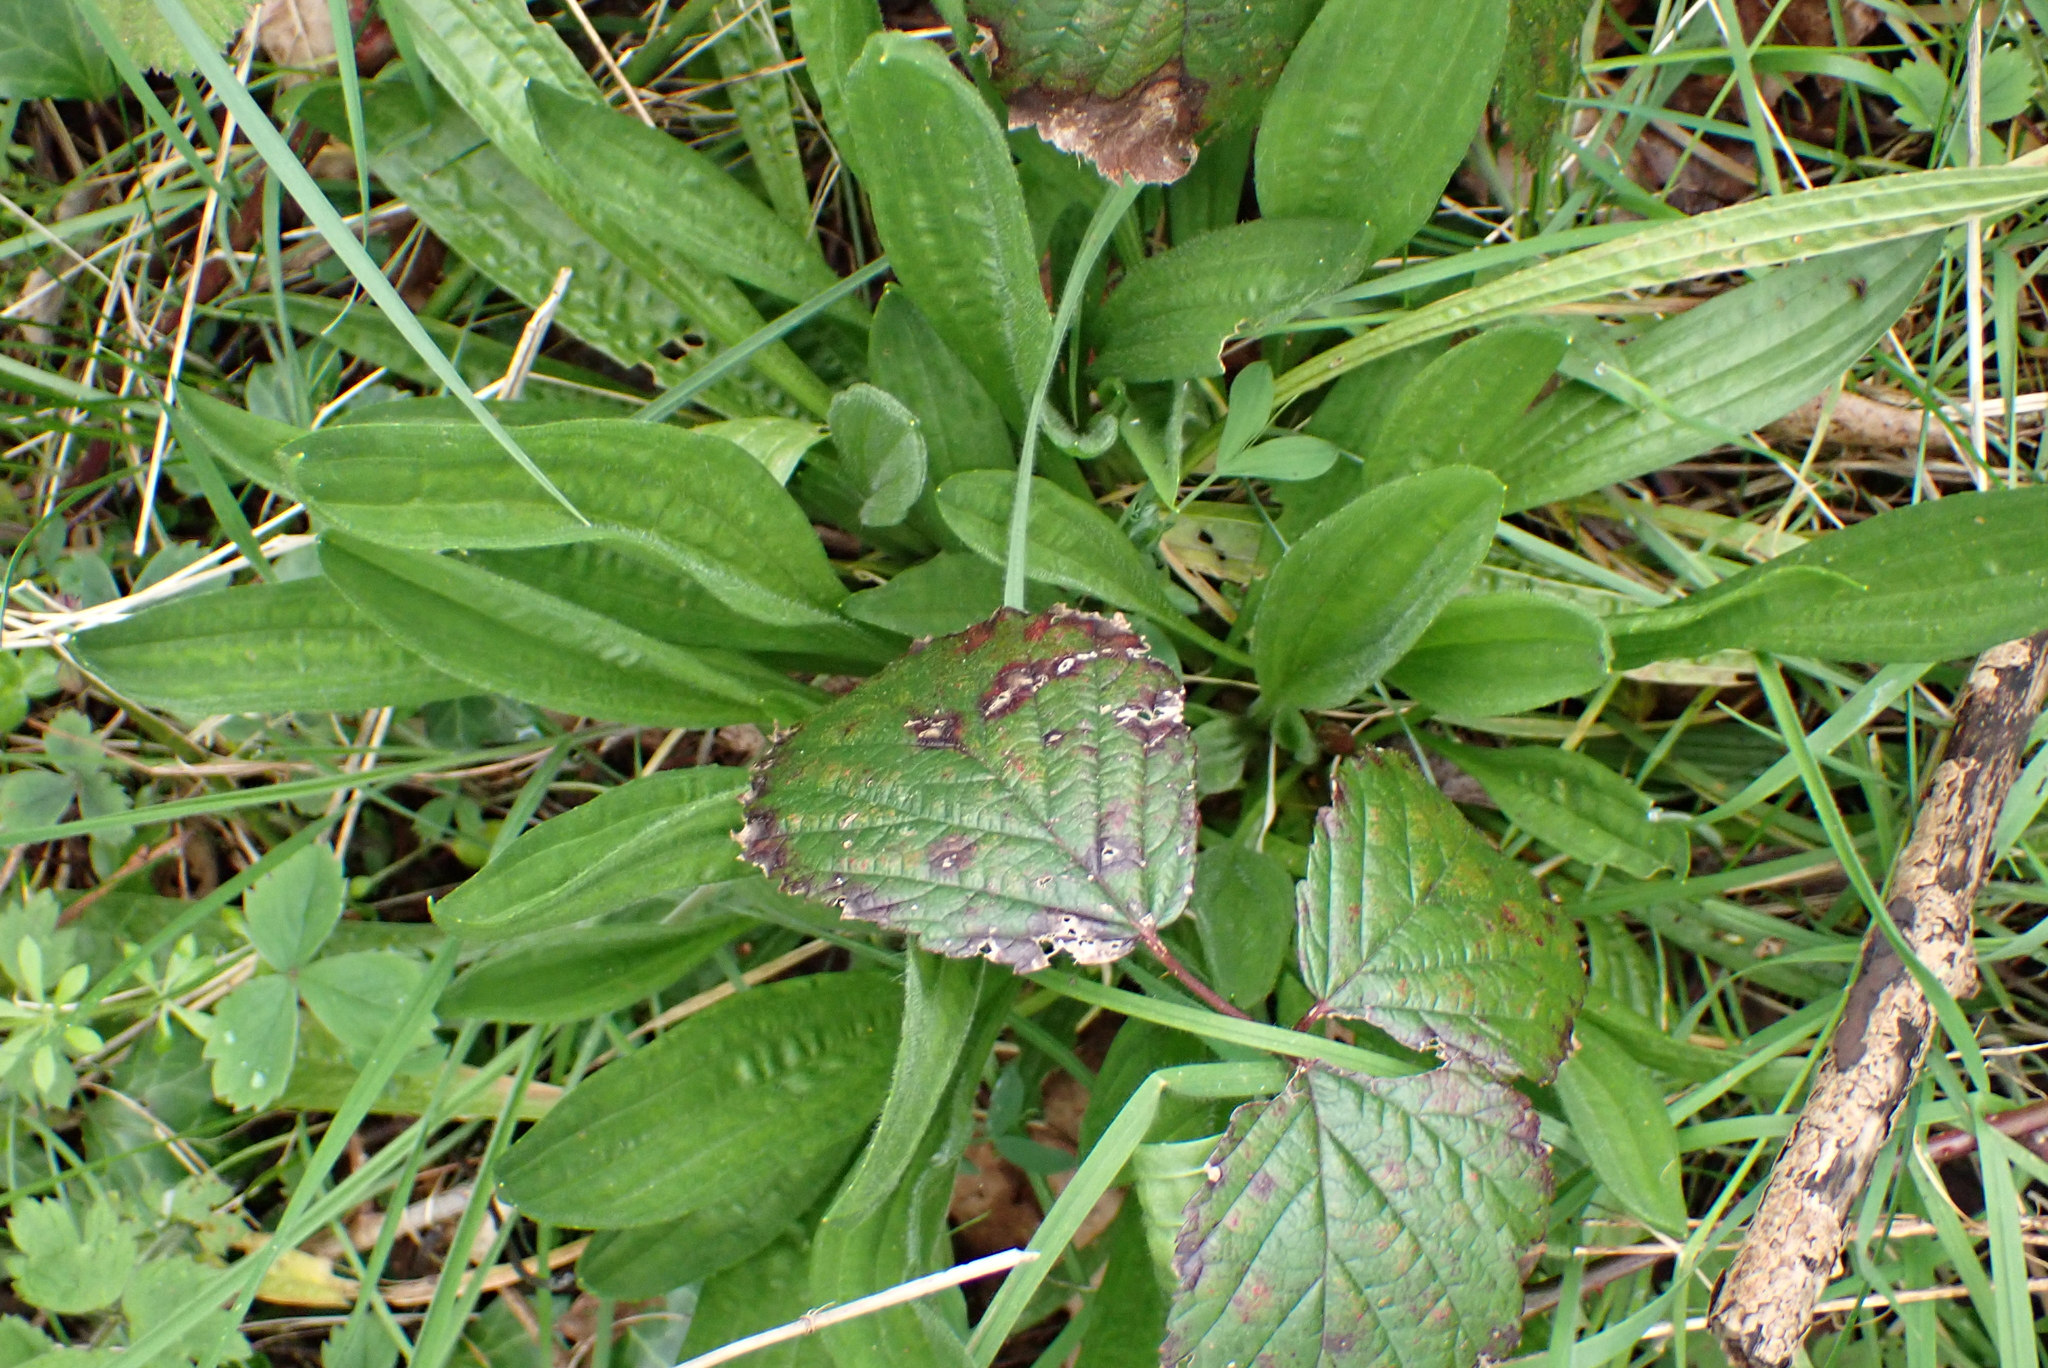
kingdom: Plantae
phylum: Tracheophyta
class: Magnoliopsida
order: Lamiales
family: Plantaginaceae
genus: Plantago
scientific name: Plantago lanceolata
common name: Ribwort plantain
